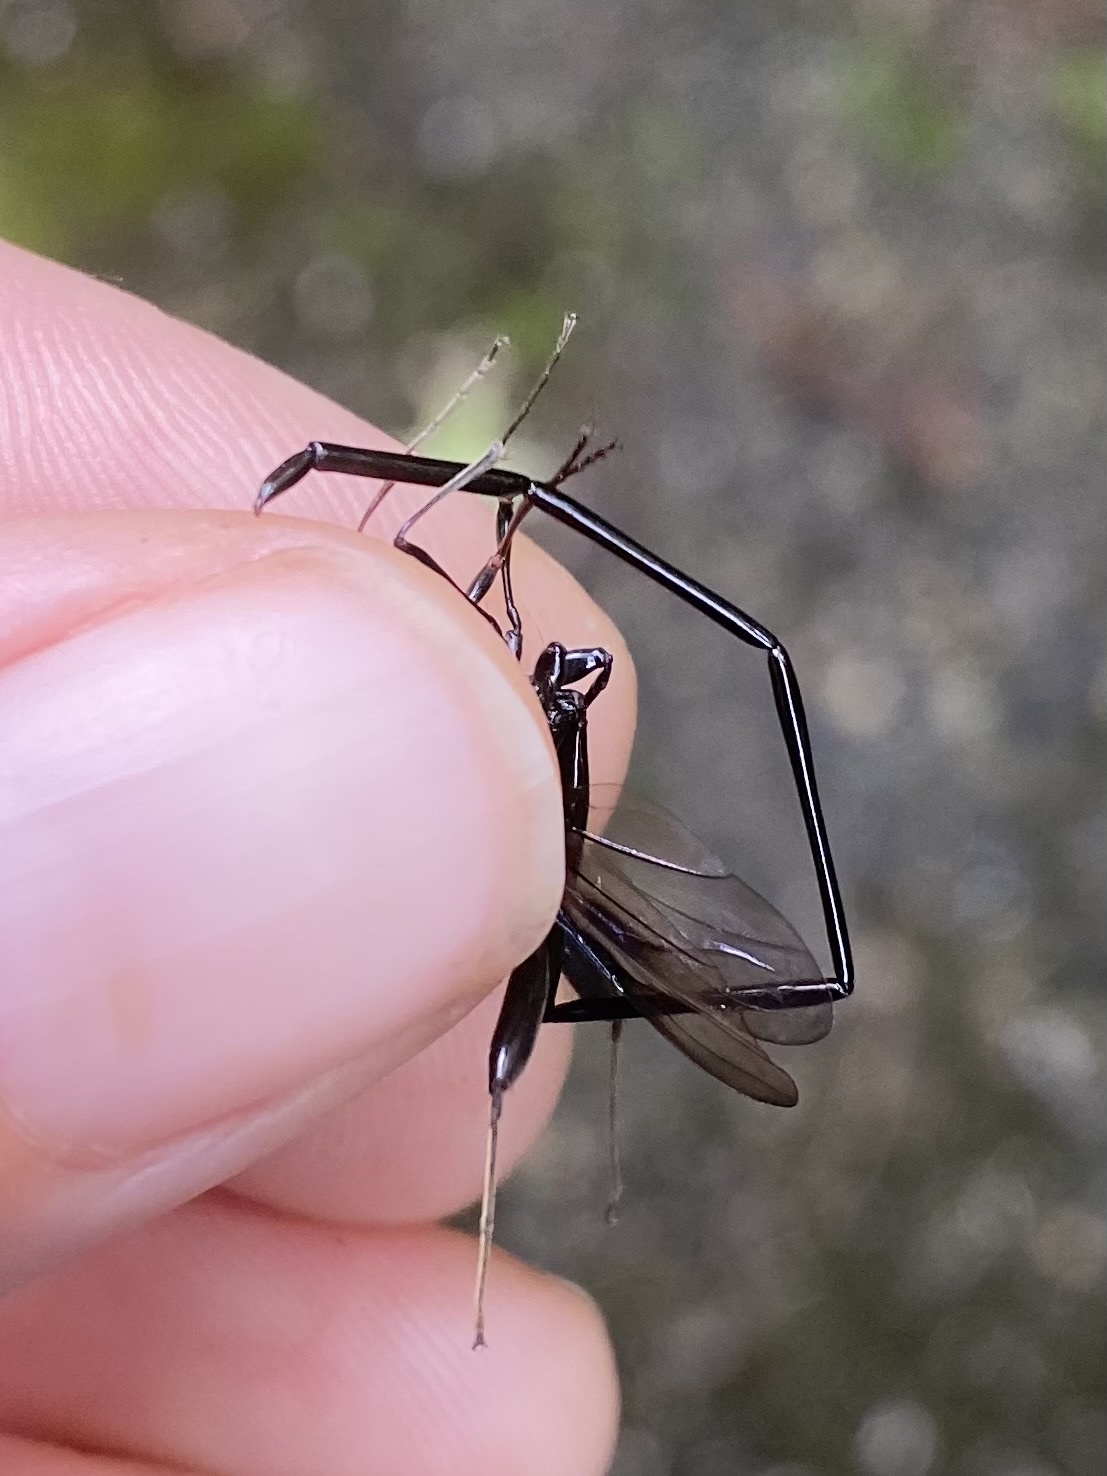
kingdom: Animalia
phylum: Arthropoda
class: Insecta
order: Hymenoptera
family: Pelecinidae
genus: Pelecinus
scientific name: Pelecinus polyturator
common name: American pelecinid wasp
